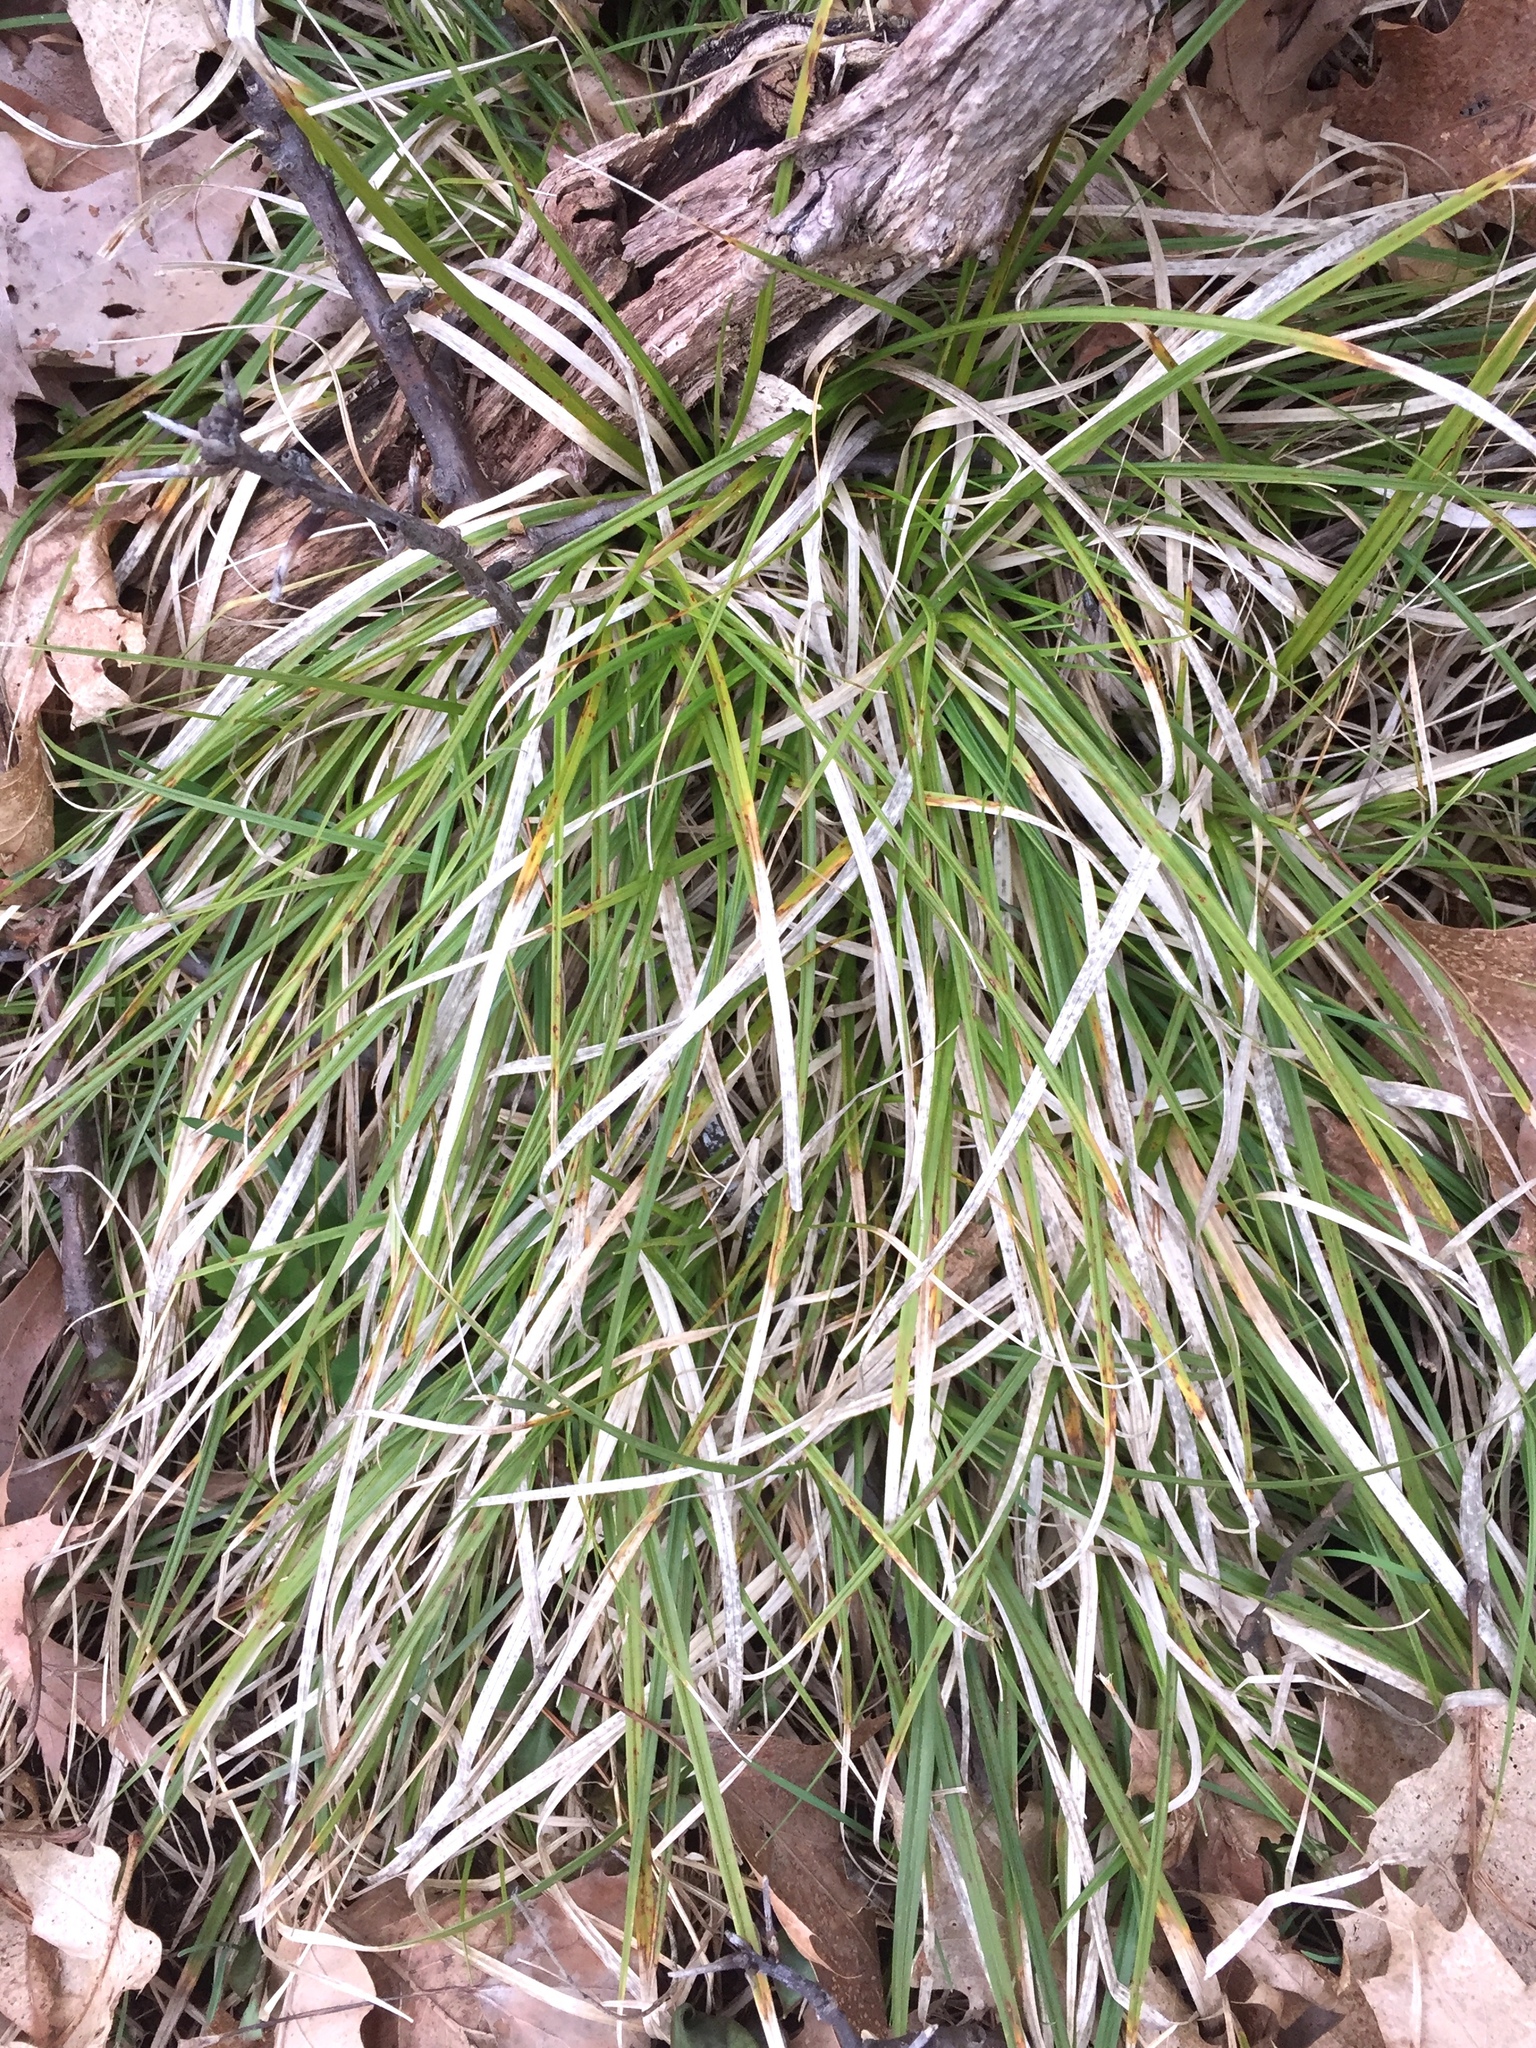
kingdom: Plantae
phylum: Tracheophyta
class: Liliopsida
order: Poales
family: Cyperaceae
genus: Carex
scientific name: Carex pedunculata
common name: Pedunculate sedge
